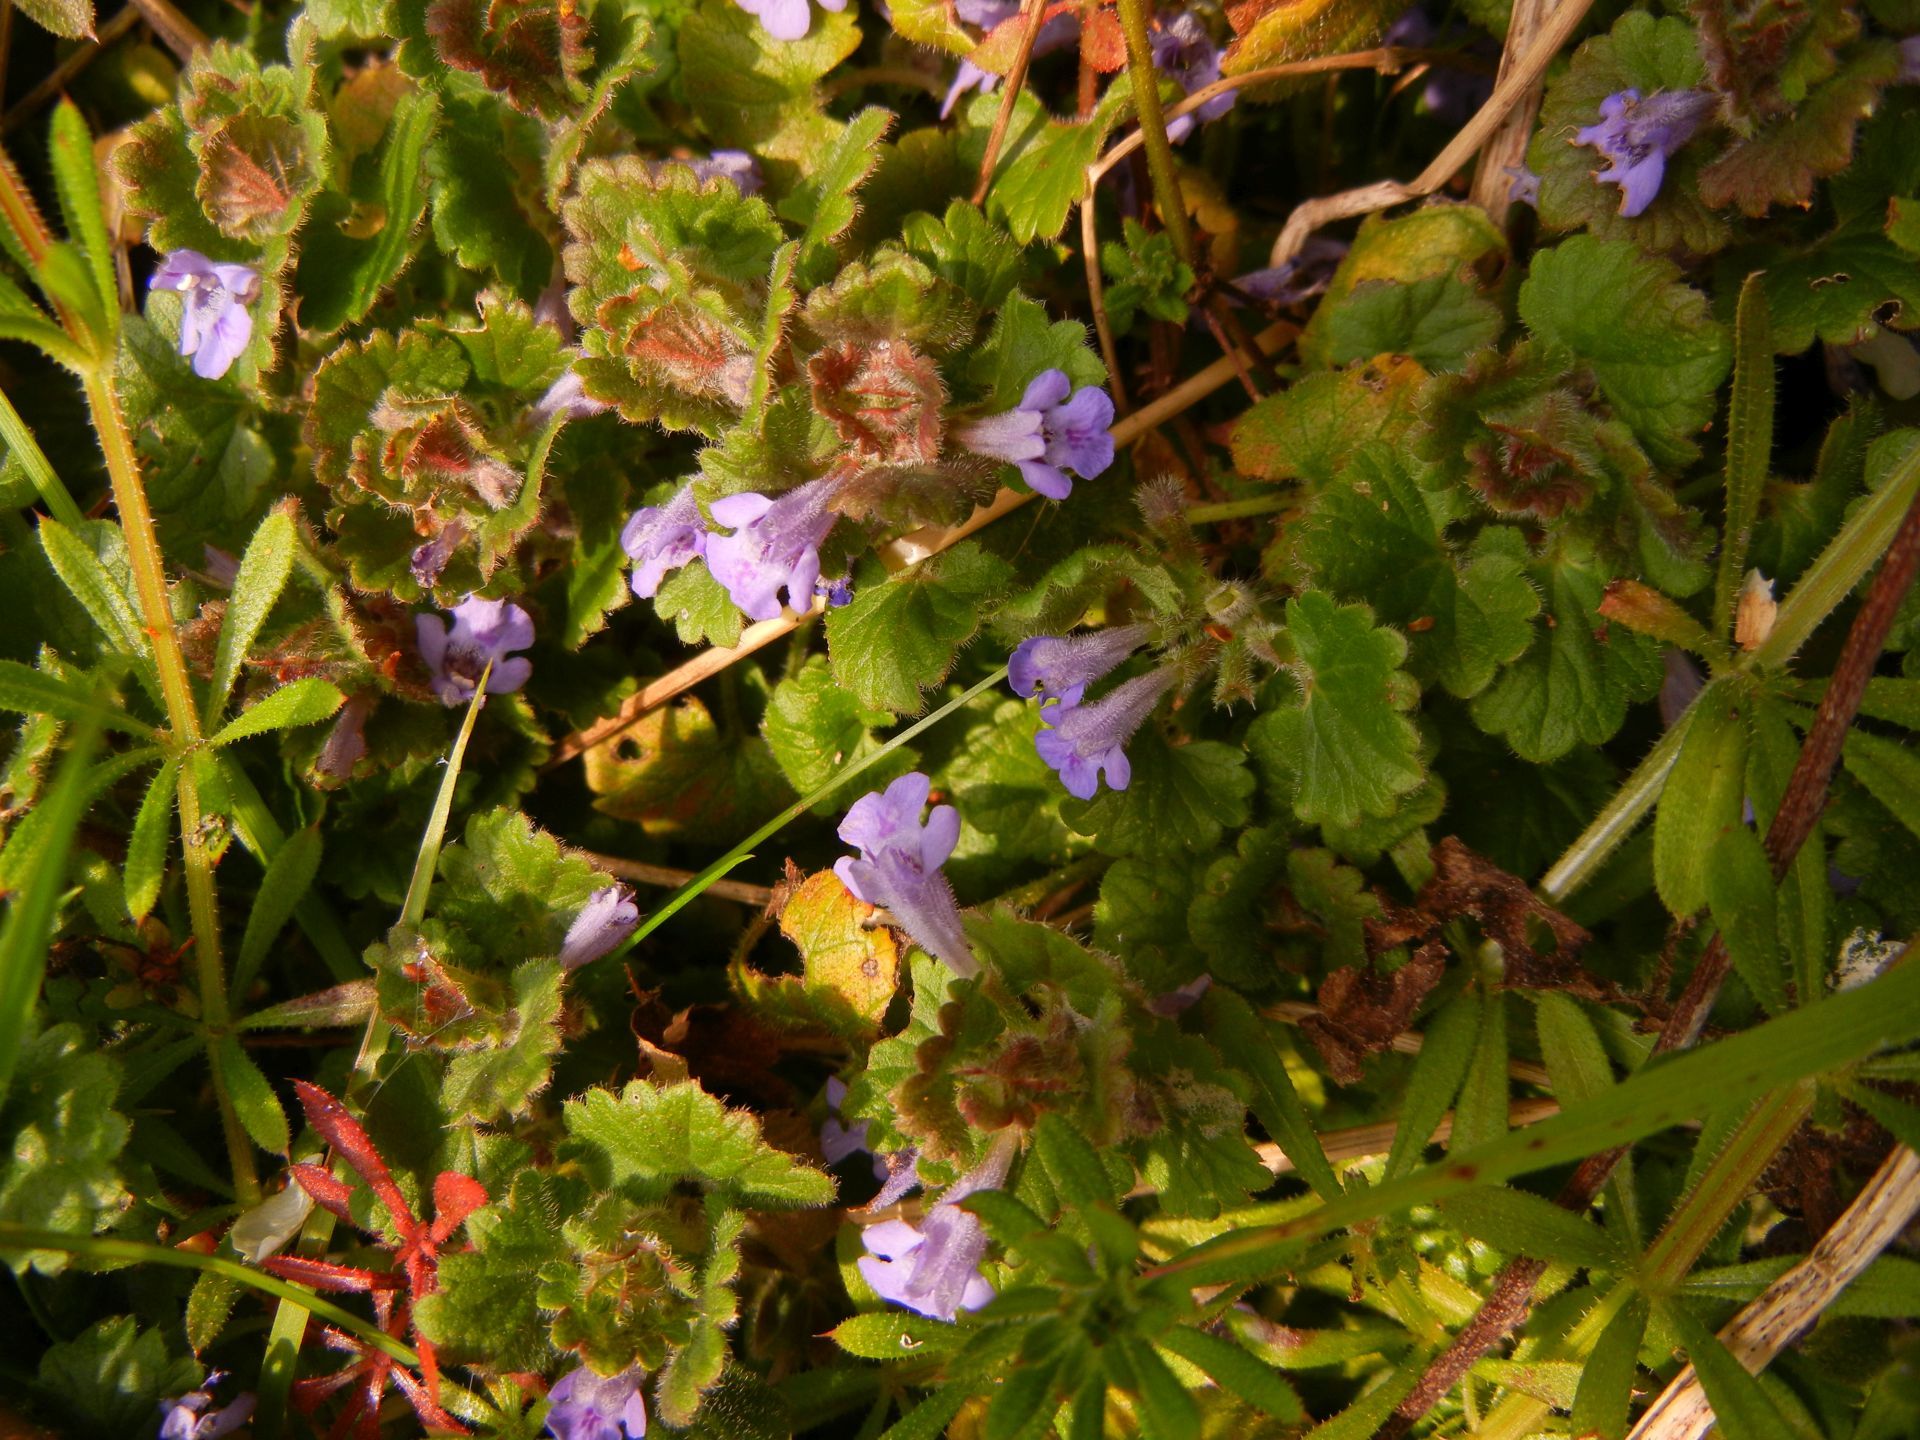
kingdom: Plantae
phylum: Tracheophyta
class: Magnoliopsida
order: Lamiales
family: Lamiaceae
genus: Glechoma
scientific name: Glechoma hederacea
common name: Ground ivy
